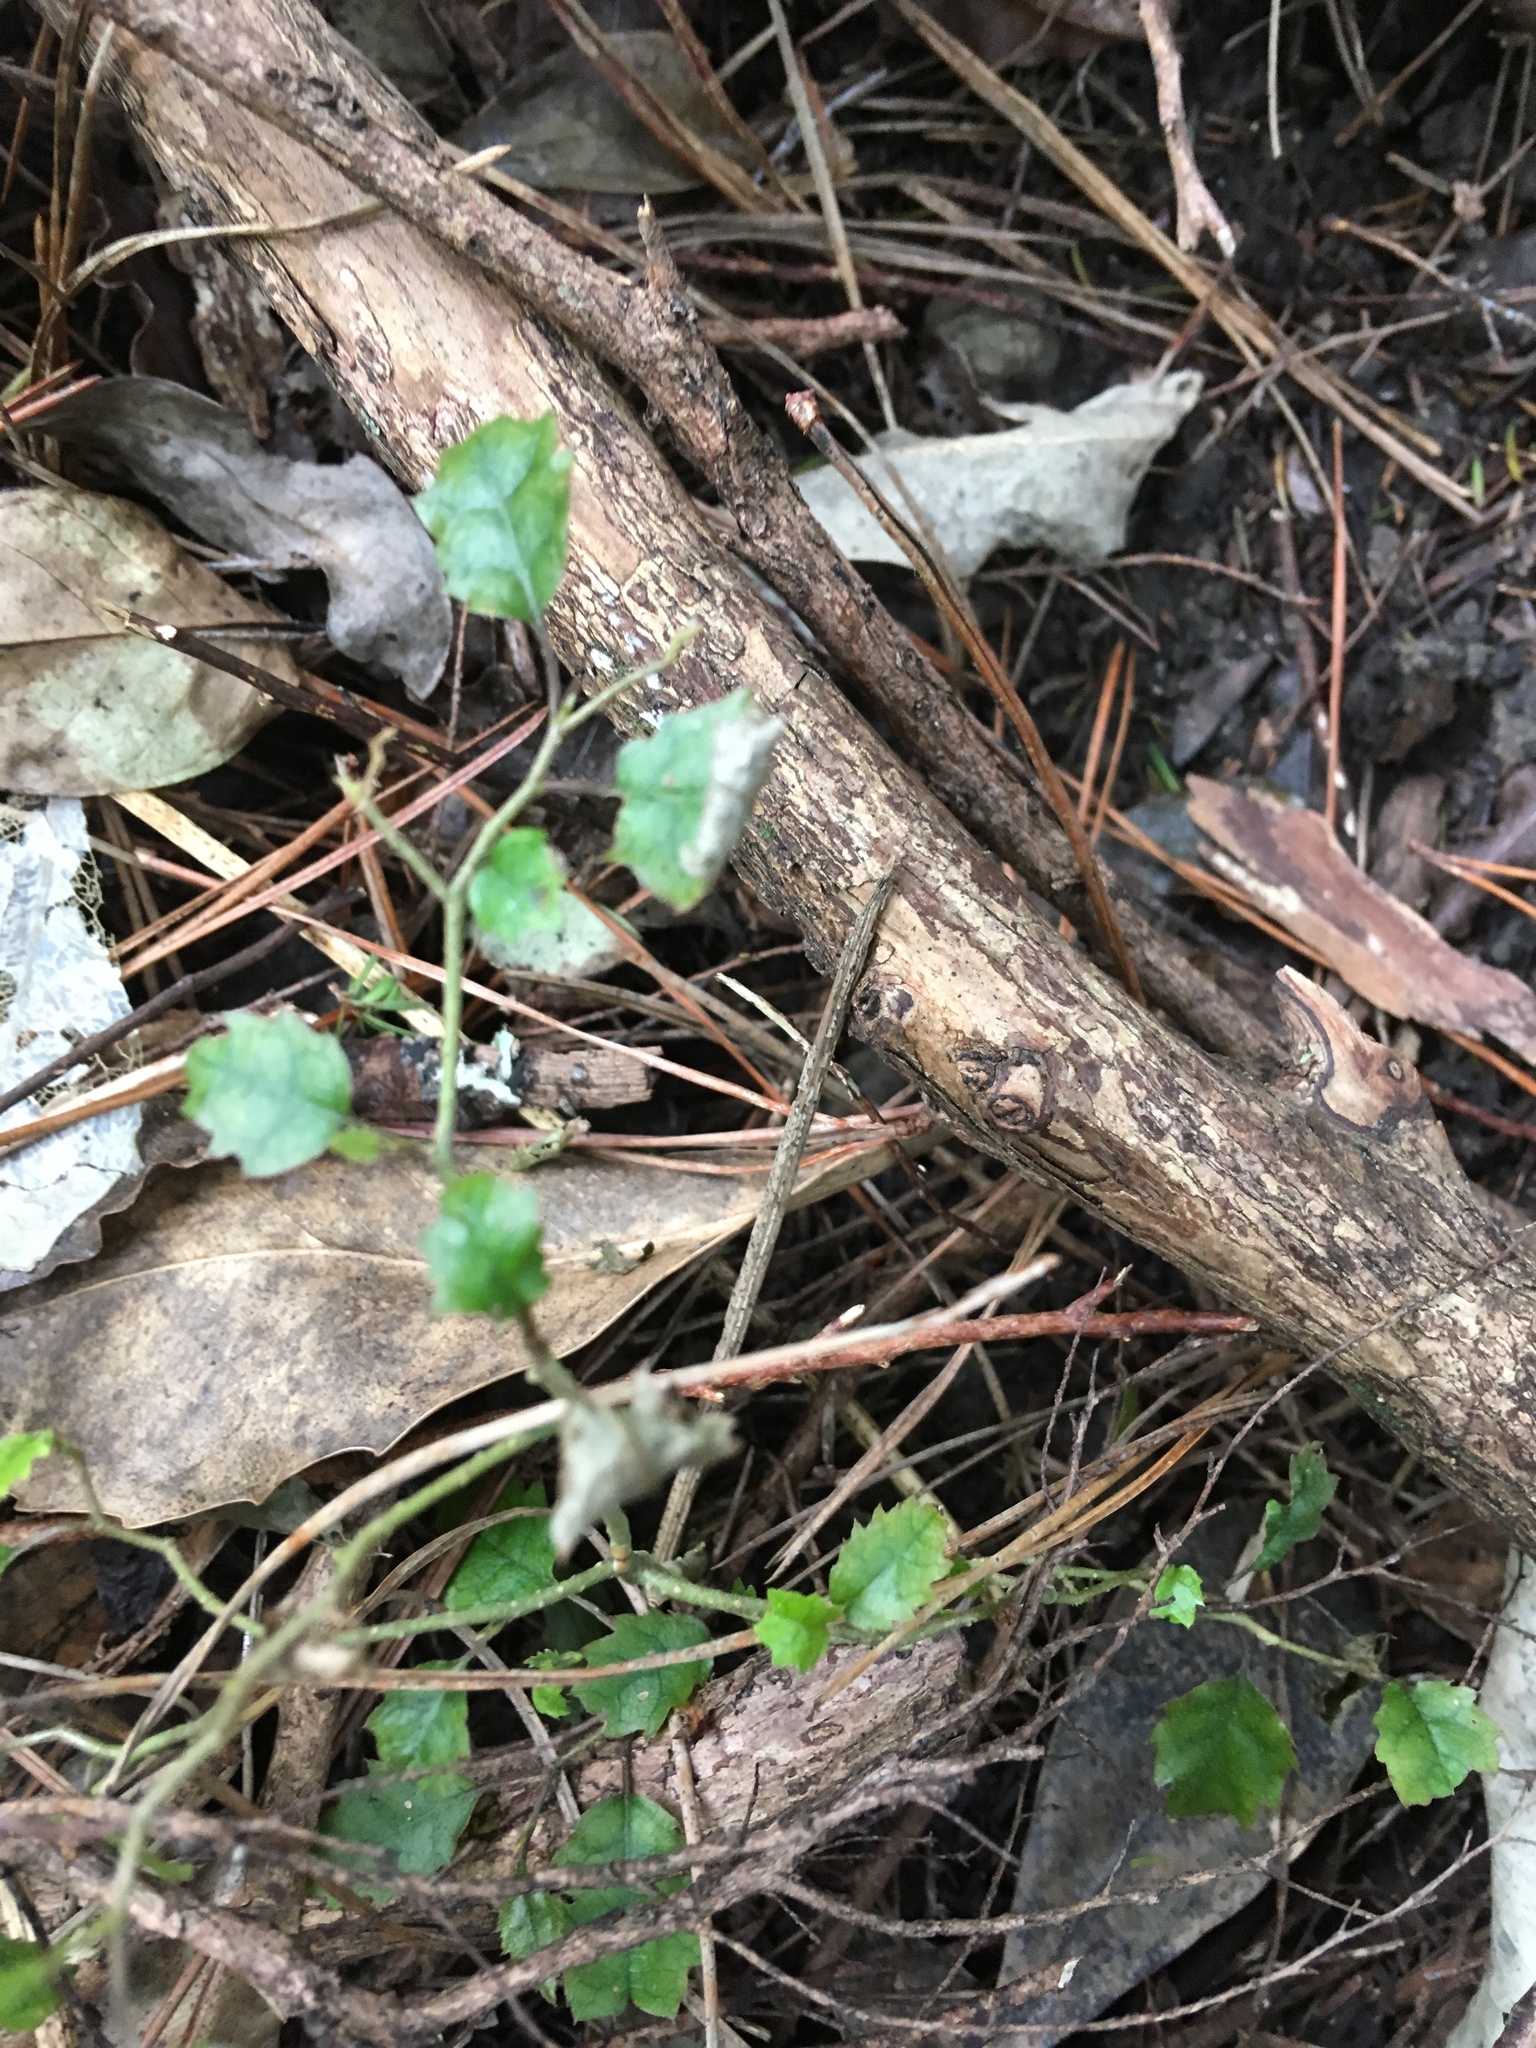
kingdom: Plantae
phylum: Tracheophyta
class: Magnoliopsida
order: Asterales
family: Rousseaceae
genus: Carpodetus
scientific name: Carpodetus serratus
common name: White mapau
